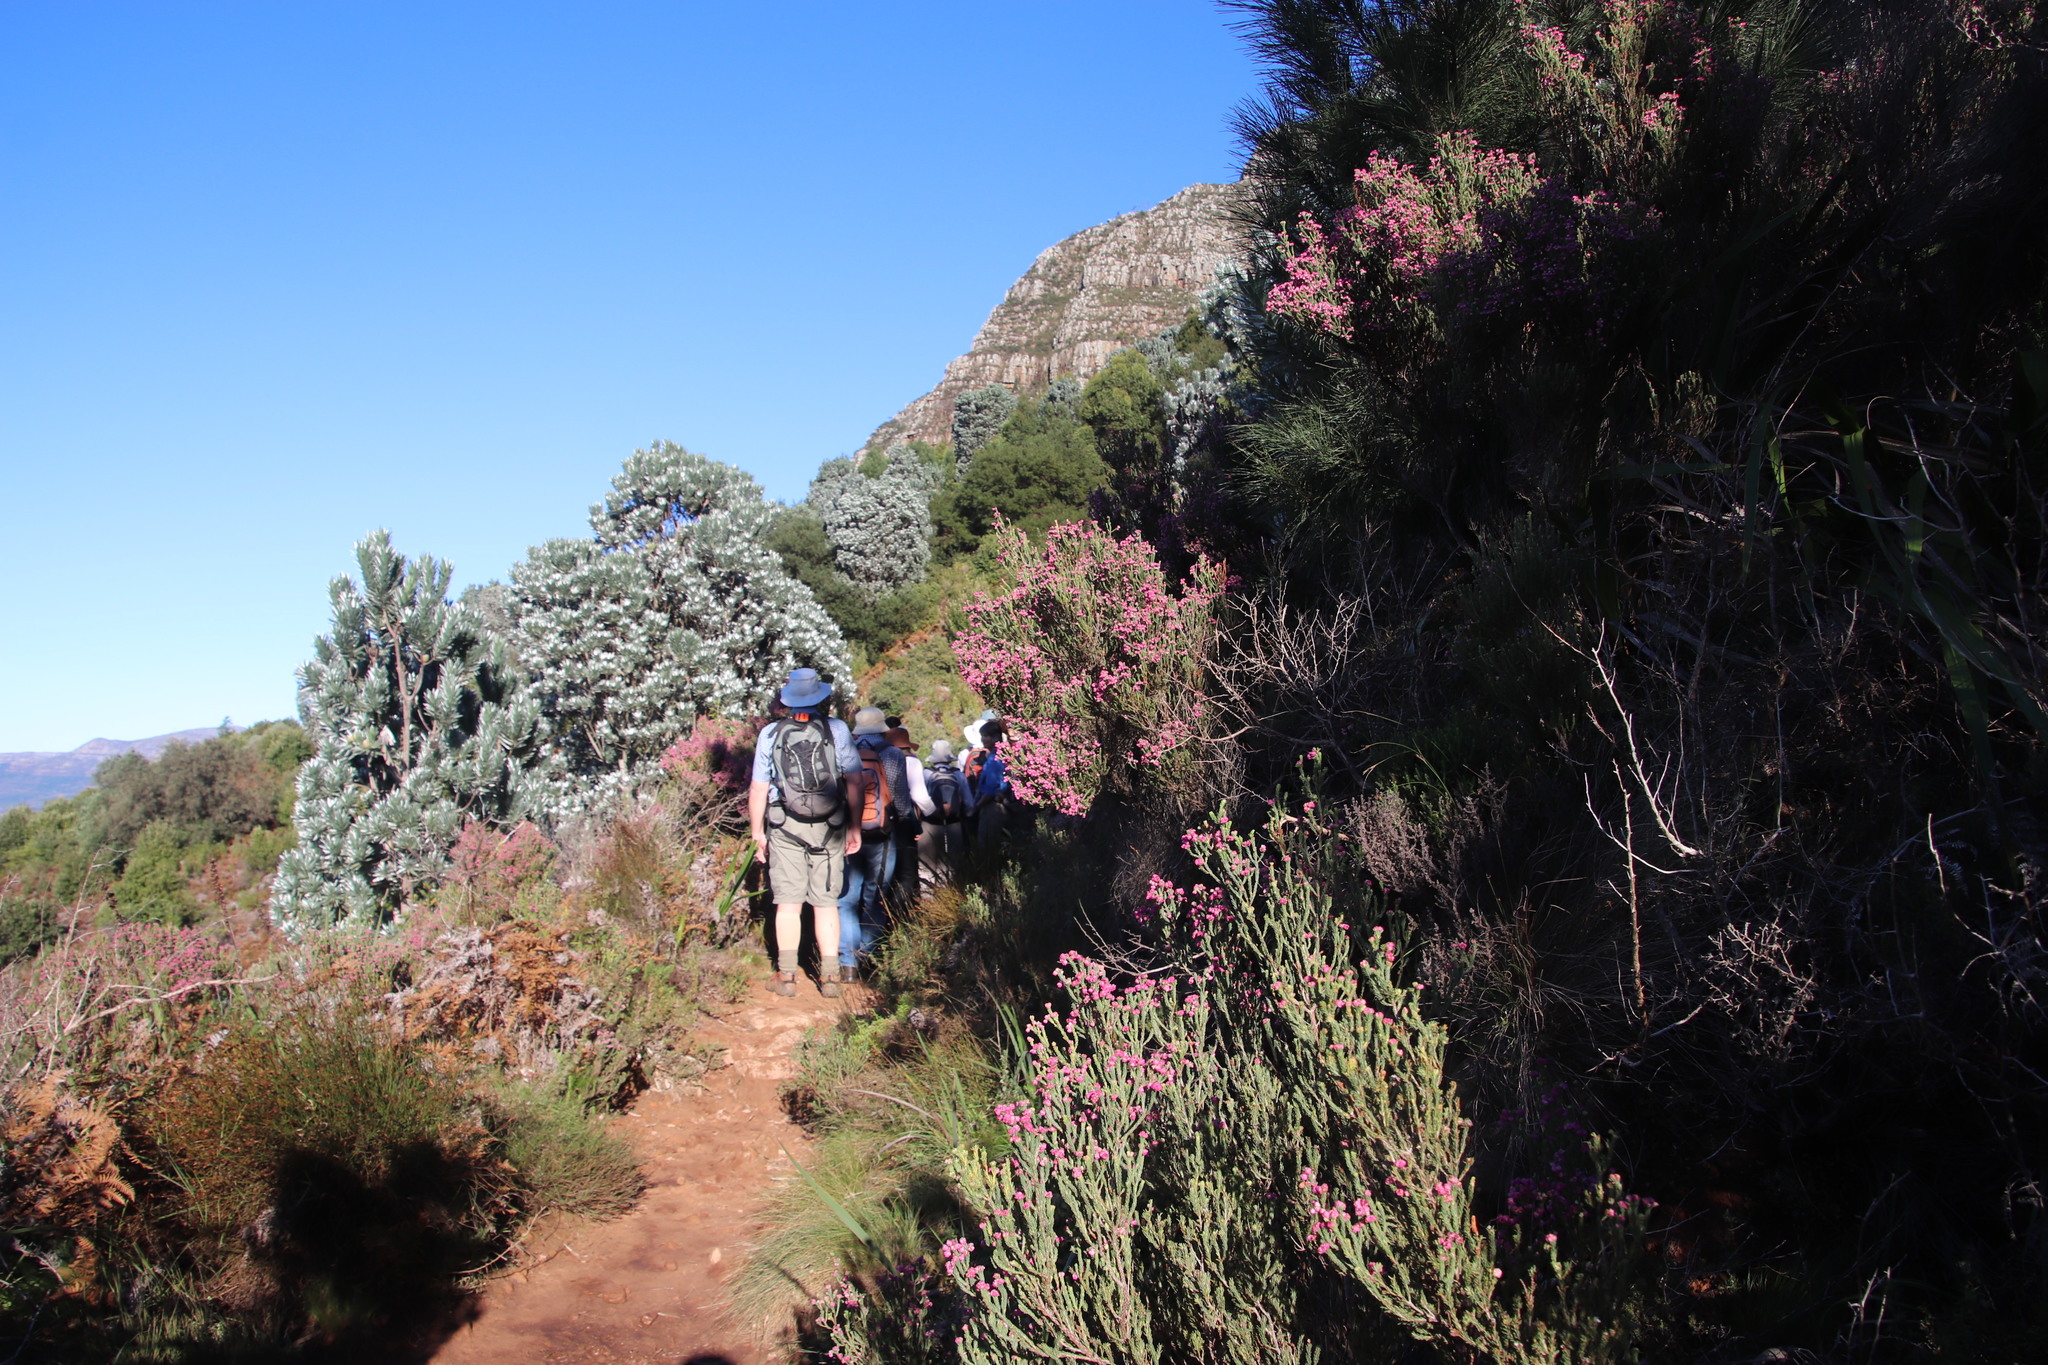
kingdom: Plantae
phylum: Tracheophyta
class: Magnoliopsida
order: Ericales
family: Ericaceae
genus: Erica
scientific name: Erica baccans
